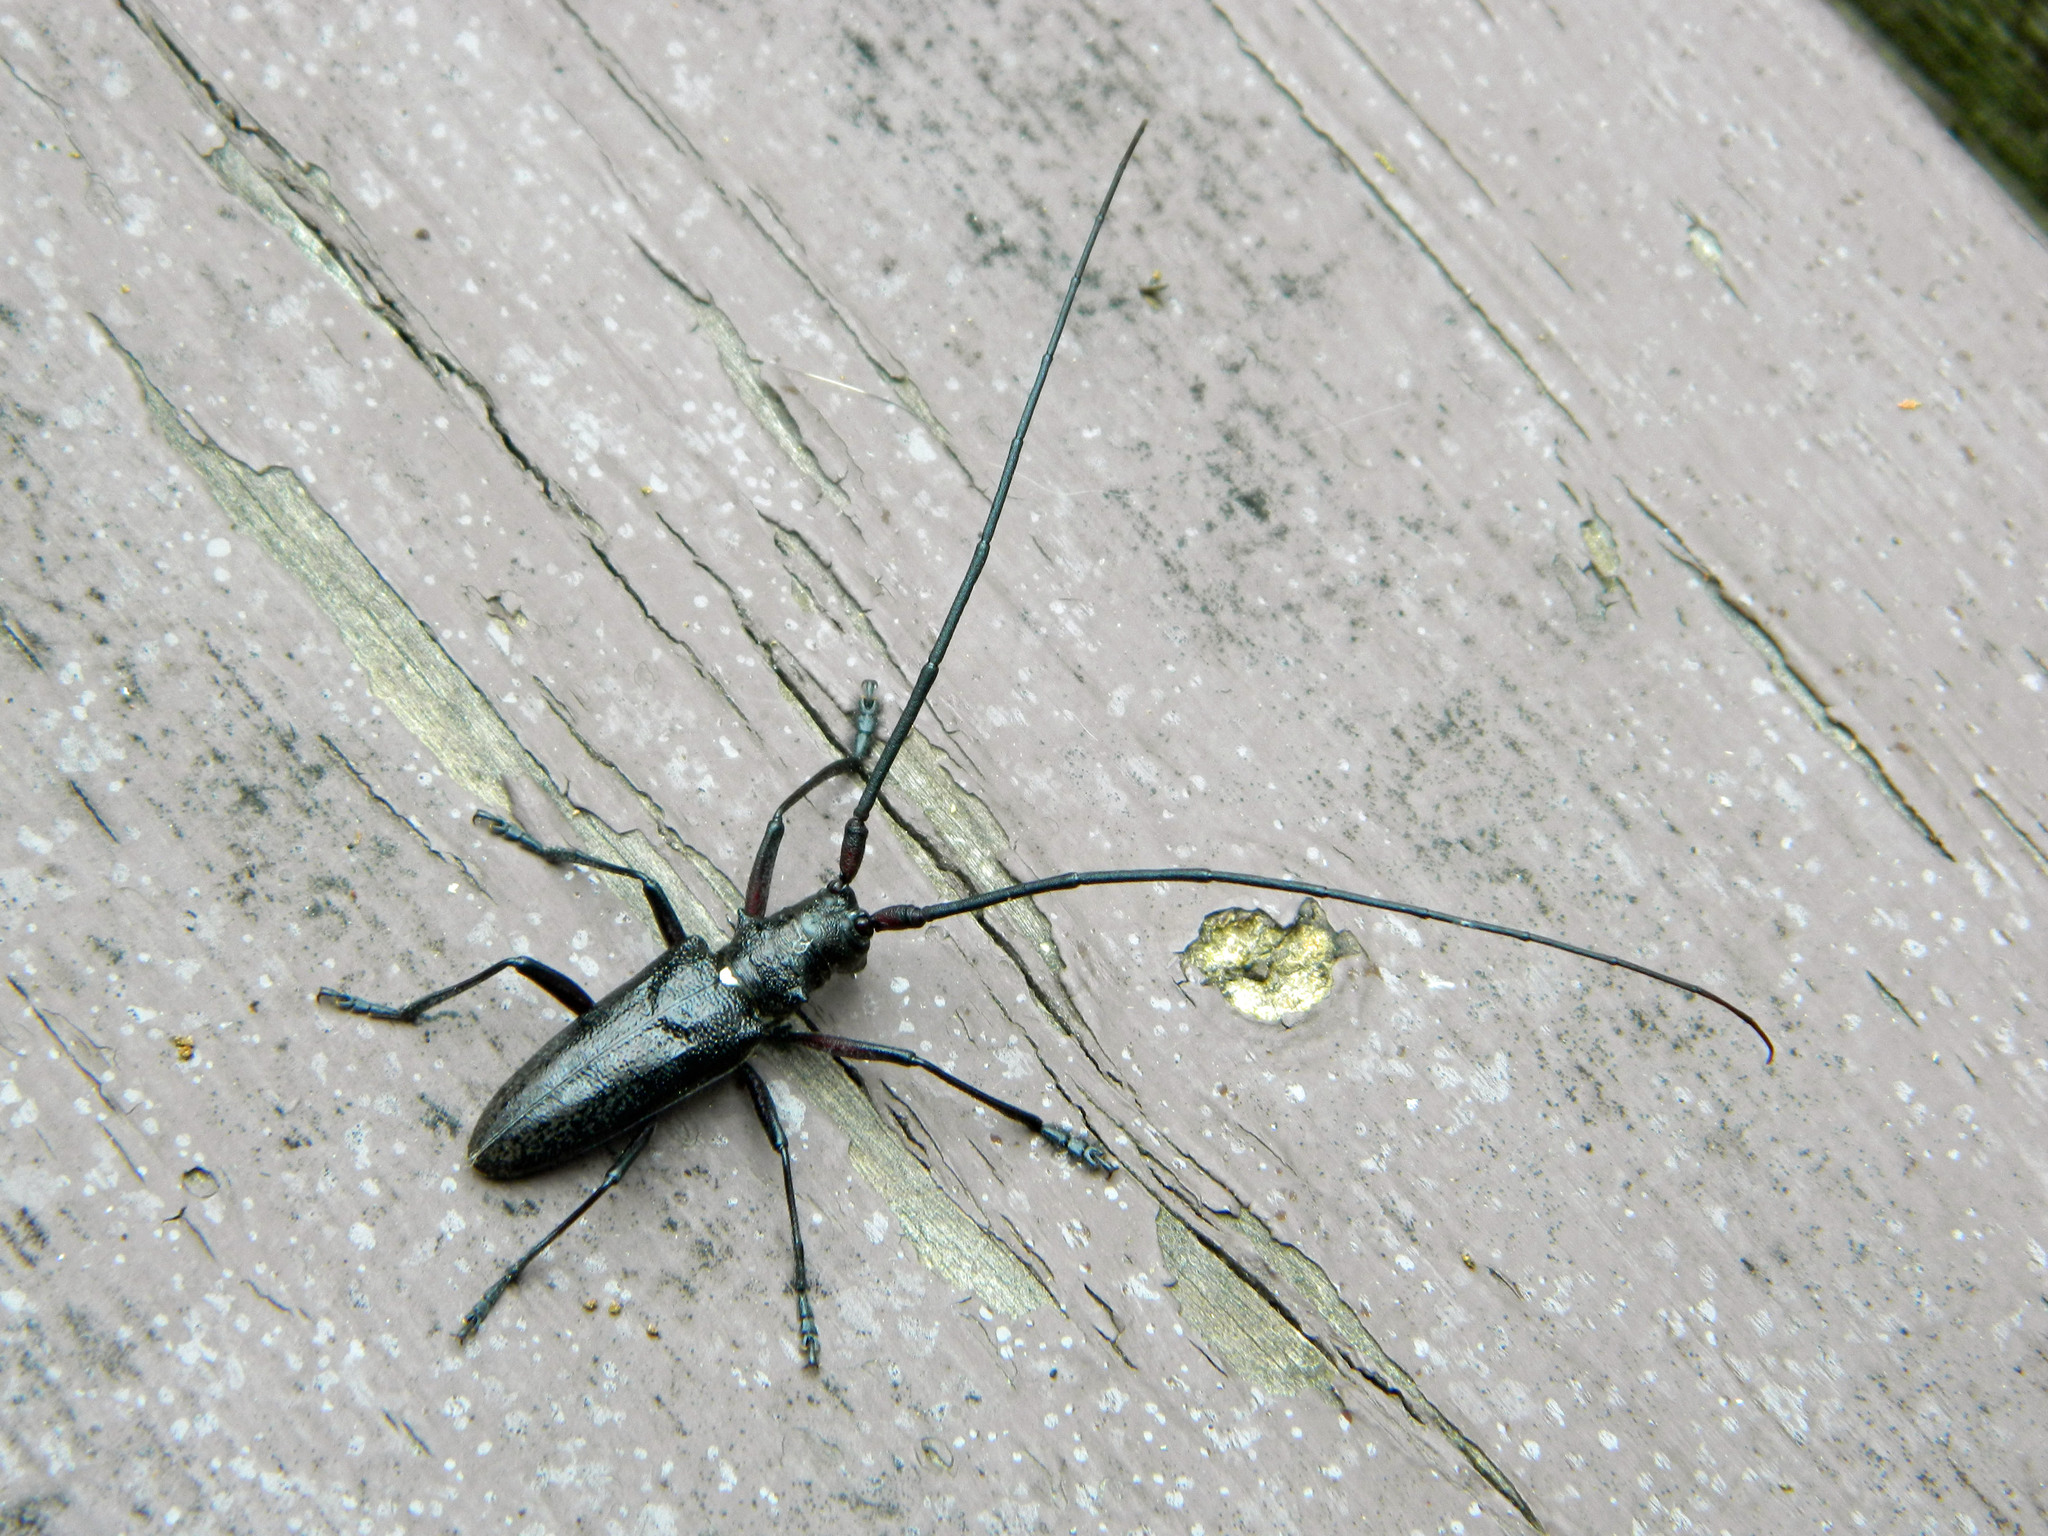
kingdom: Animalia
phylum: Arthropoda
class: Insecta
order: Coleoptera
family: Cerambycidae
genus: Monochamus
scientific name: Monochamus scutellatus
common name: White-spotted sawyer beetle
